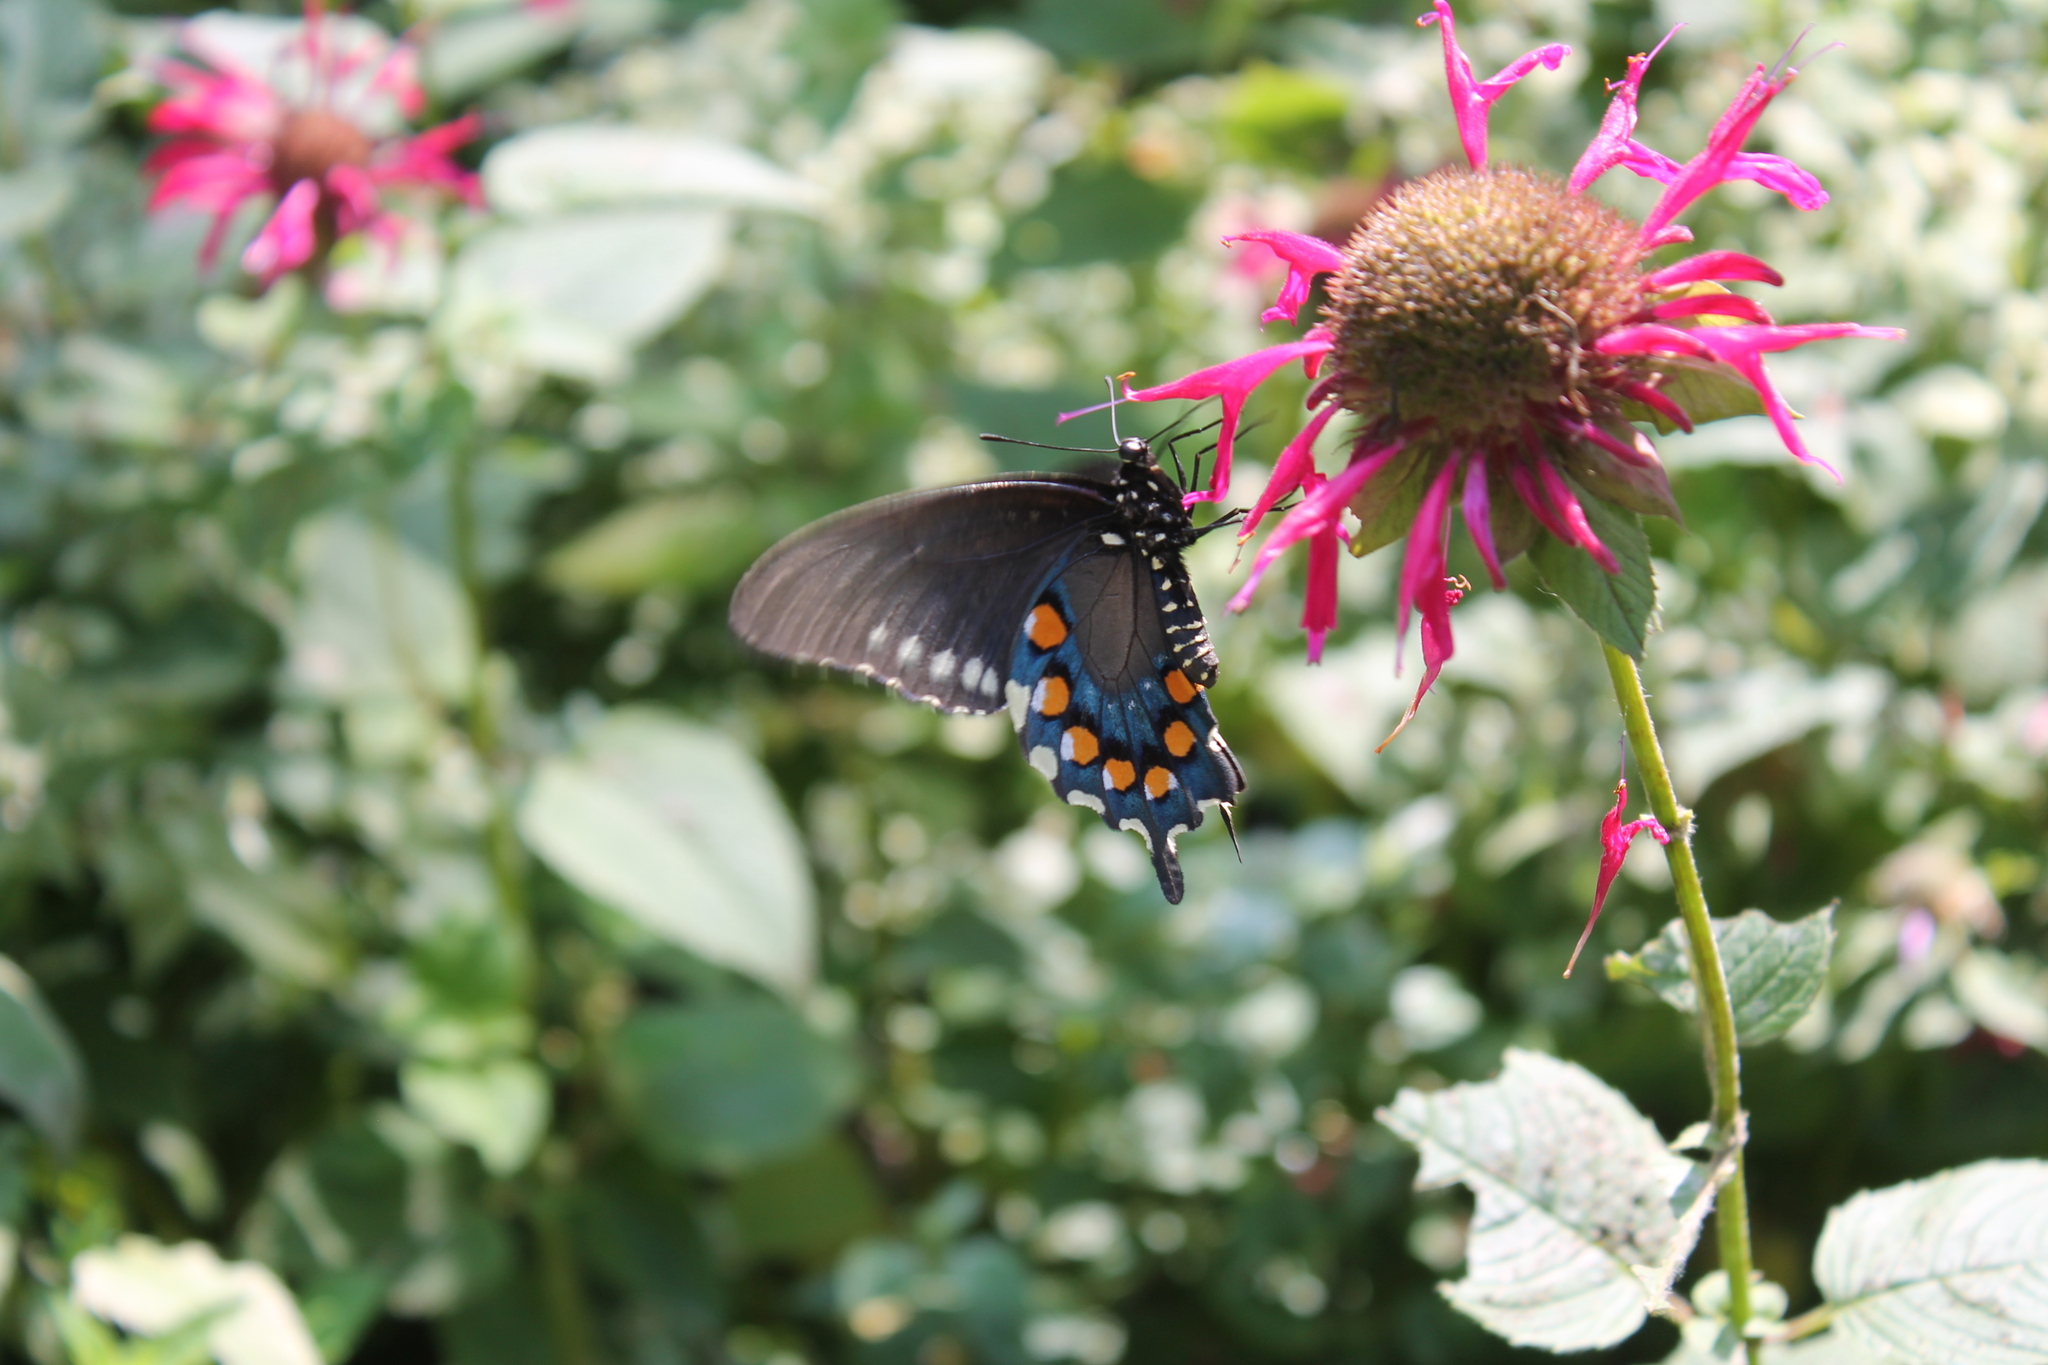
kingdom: Animalia
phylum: Arthropoda
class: Insecta
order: Lepidoptera
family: Papilionidae
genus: Battus
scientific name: Battus philenor
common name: Pipevine swallowtail
